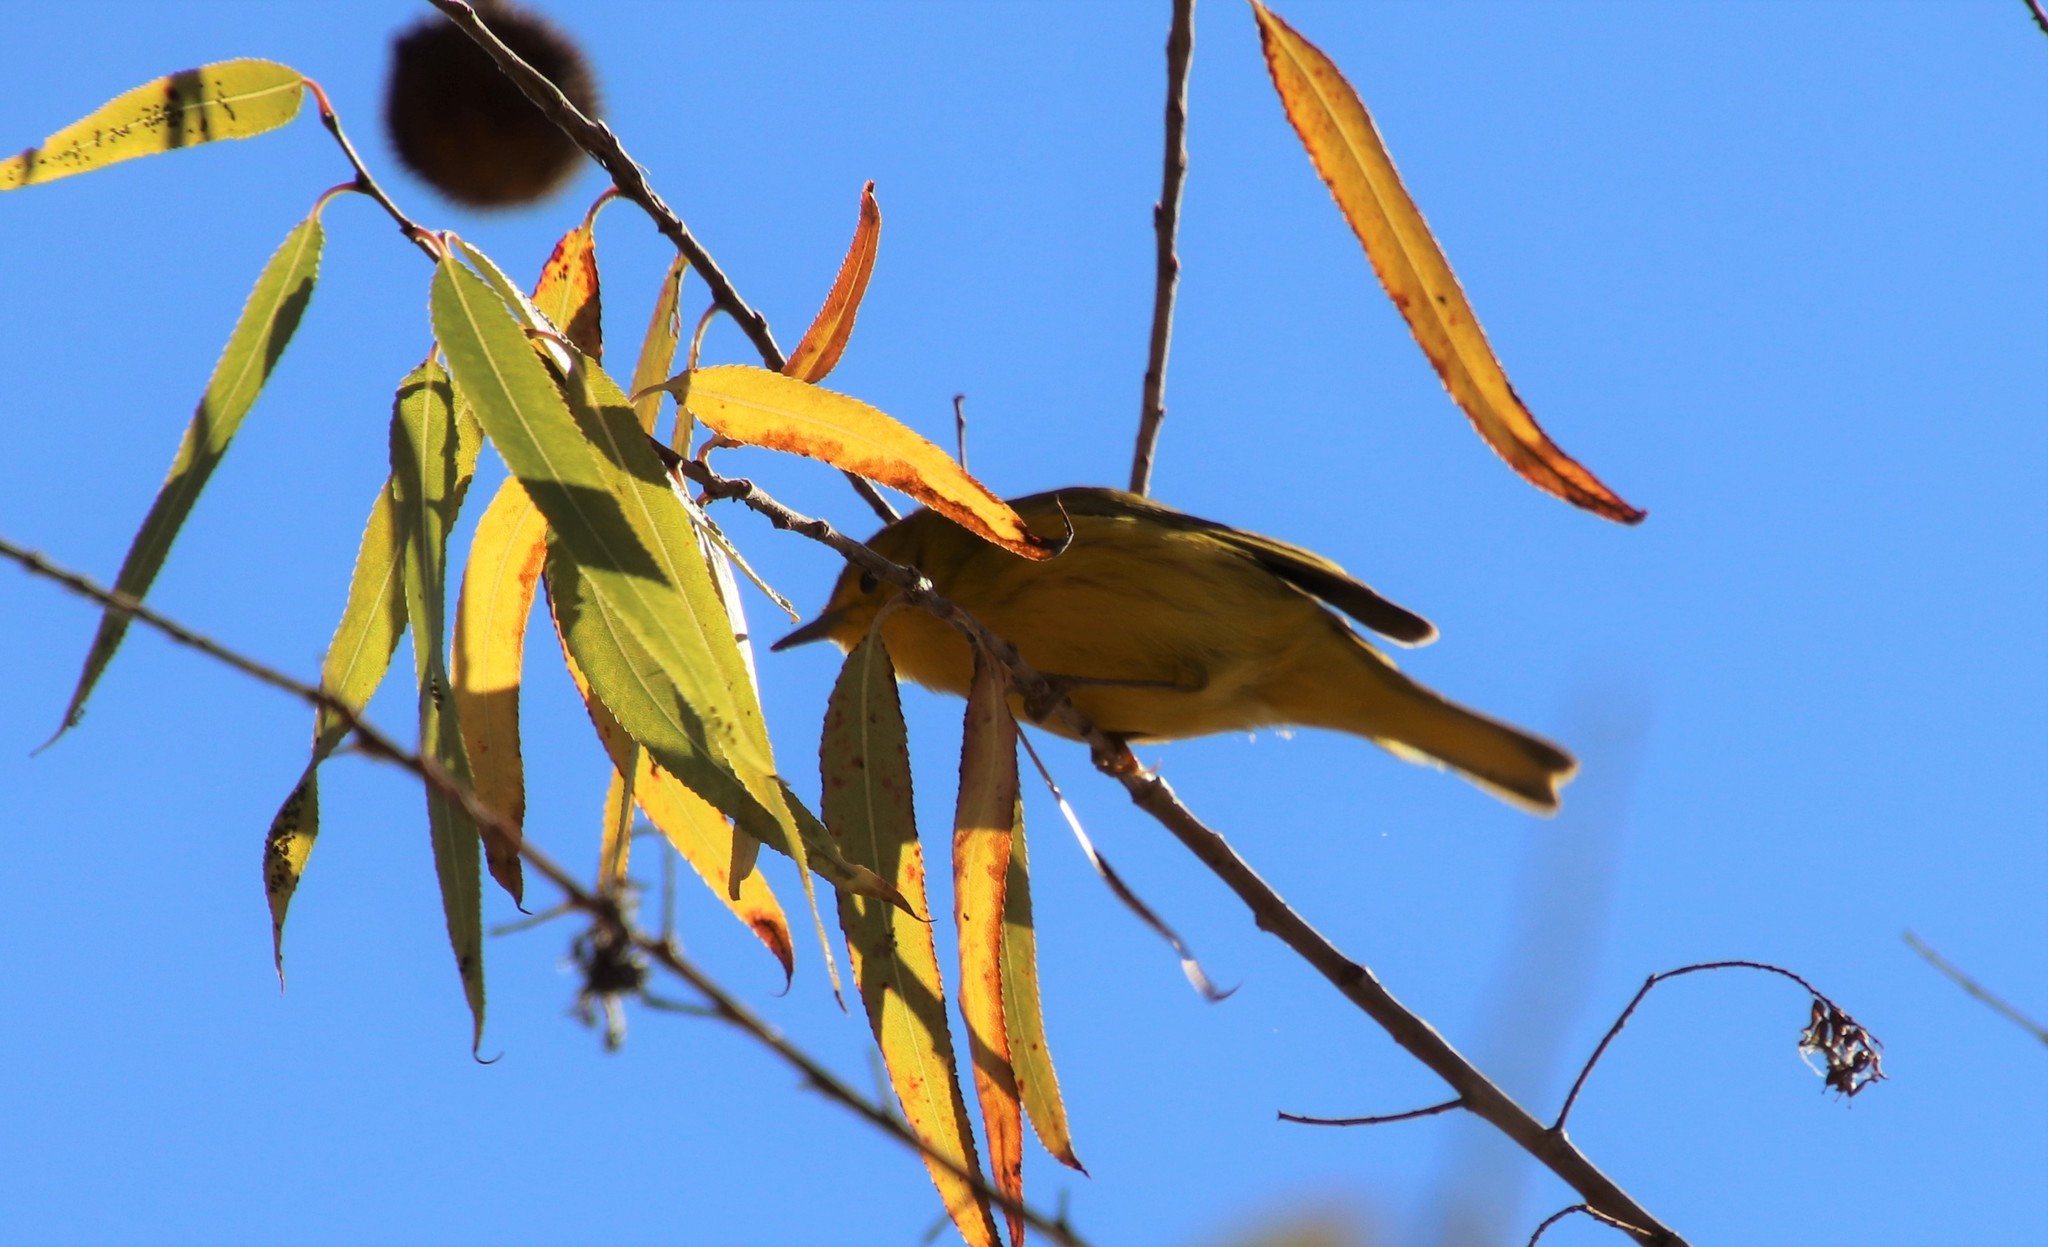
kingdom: Animalia
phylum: Chordata
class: Aves
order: Passeriformes
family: Parulidae
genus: Setophaga
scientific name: Setophaga petechia
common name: Yellow warbler
